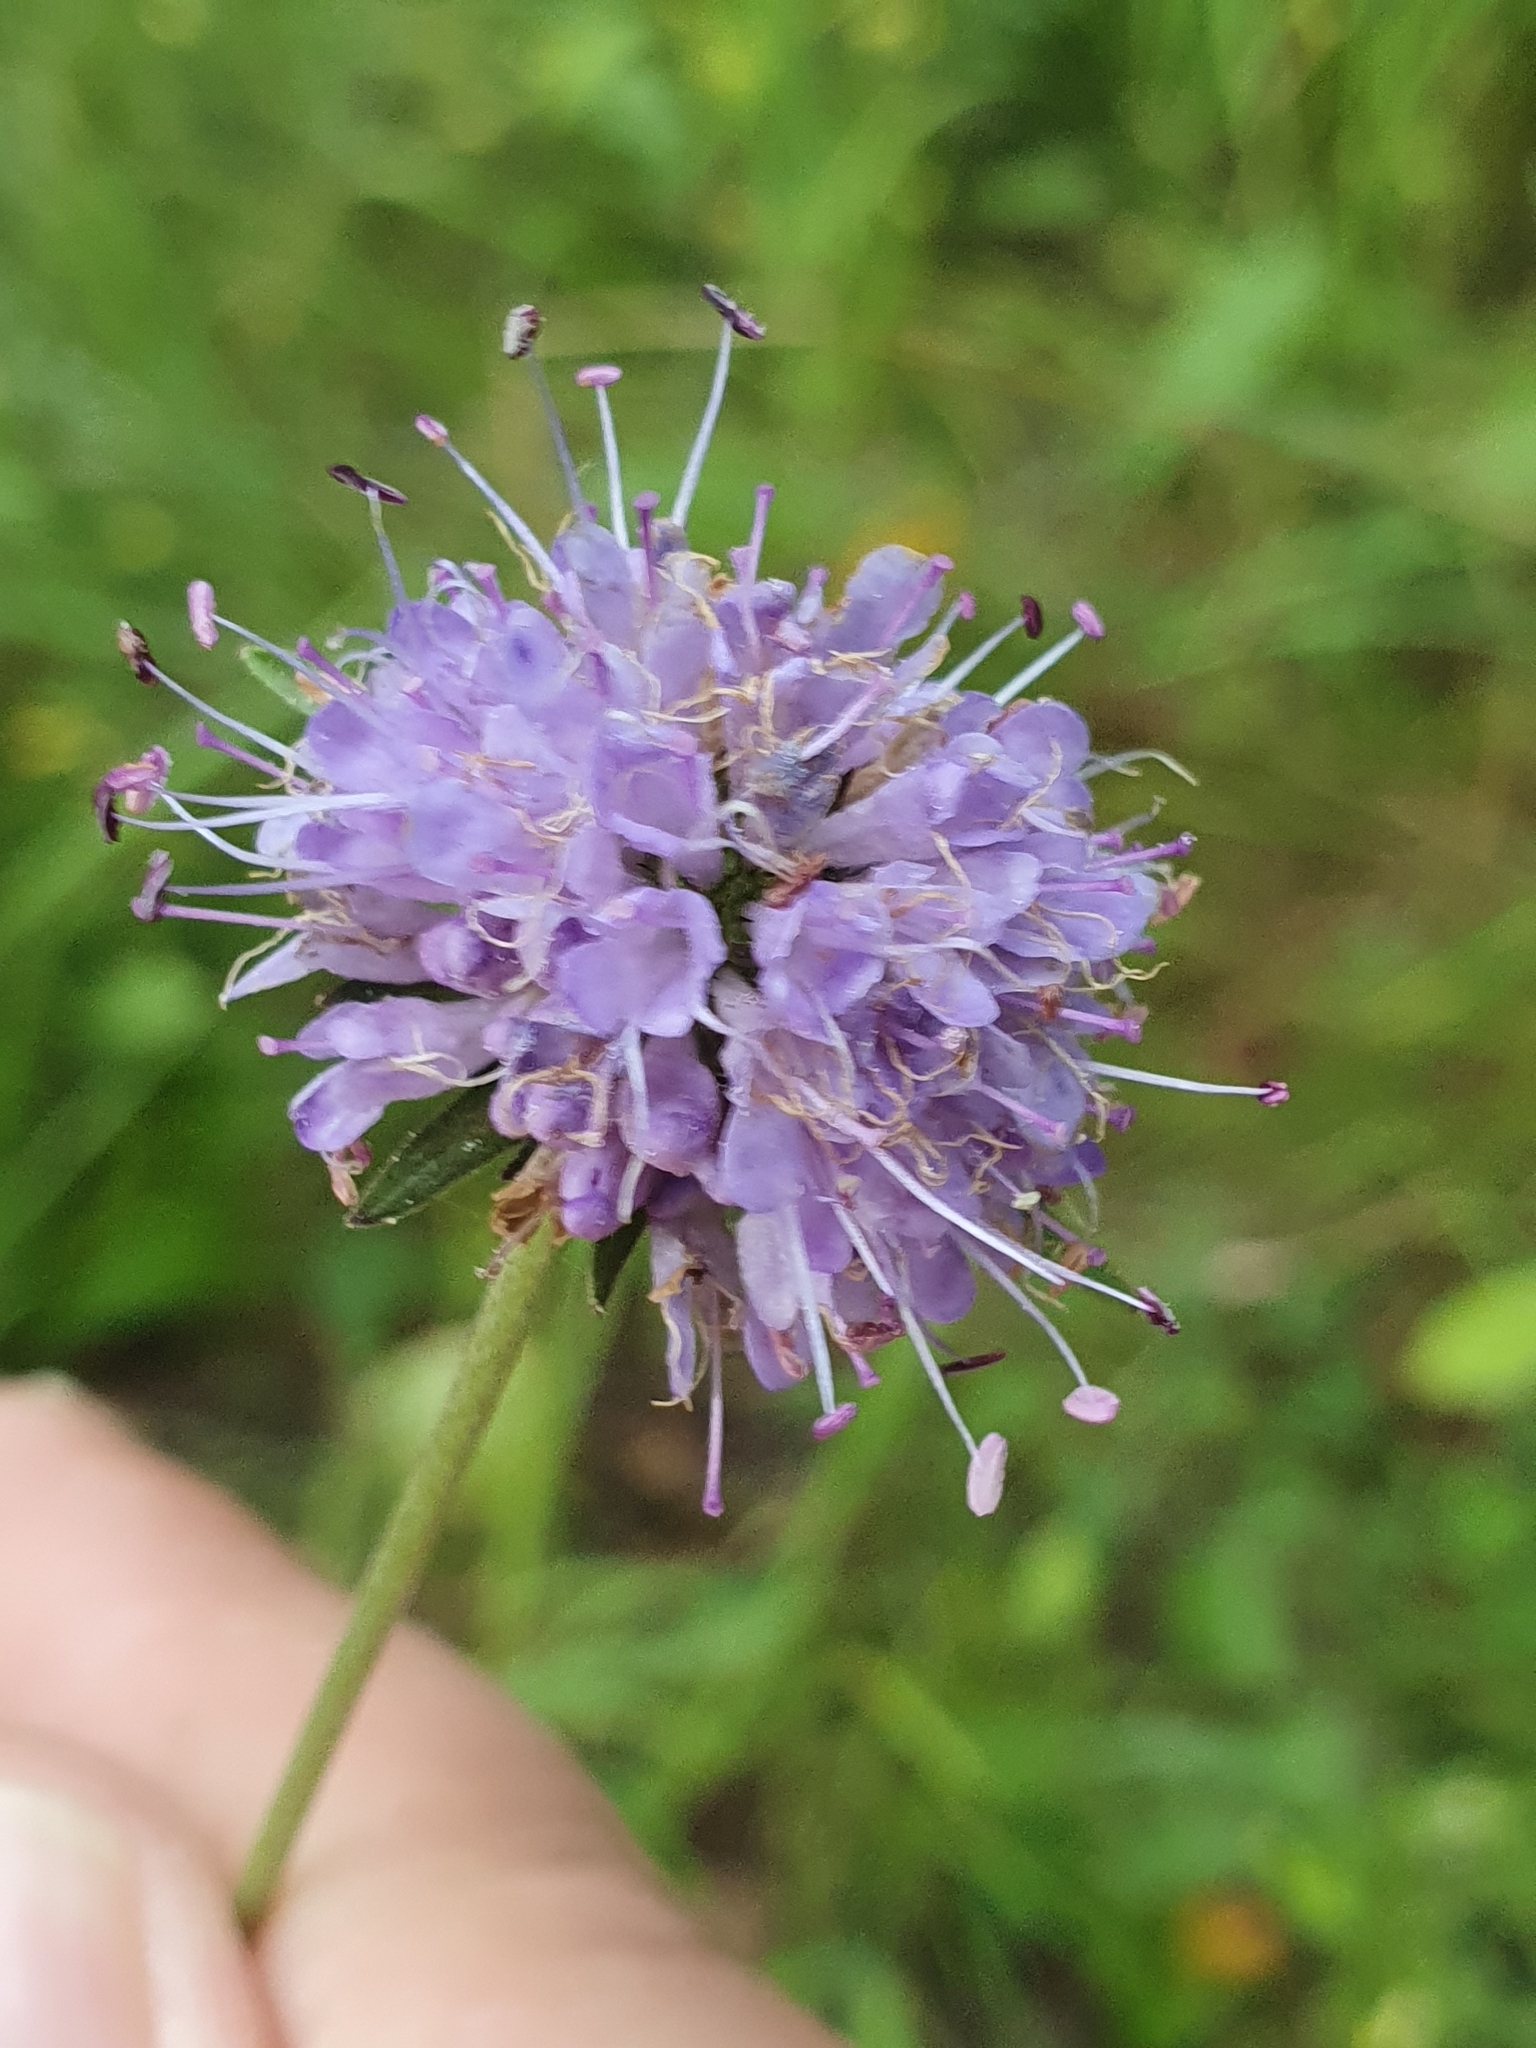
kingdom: Plantae
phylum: Tracheophyta
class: Magnoliopsida
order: Dipsacales
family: Caprifoliaceae
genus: Succisa
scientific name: Succisa pratensis
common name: Devil's-bit
